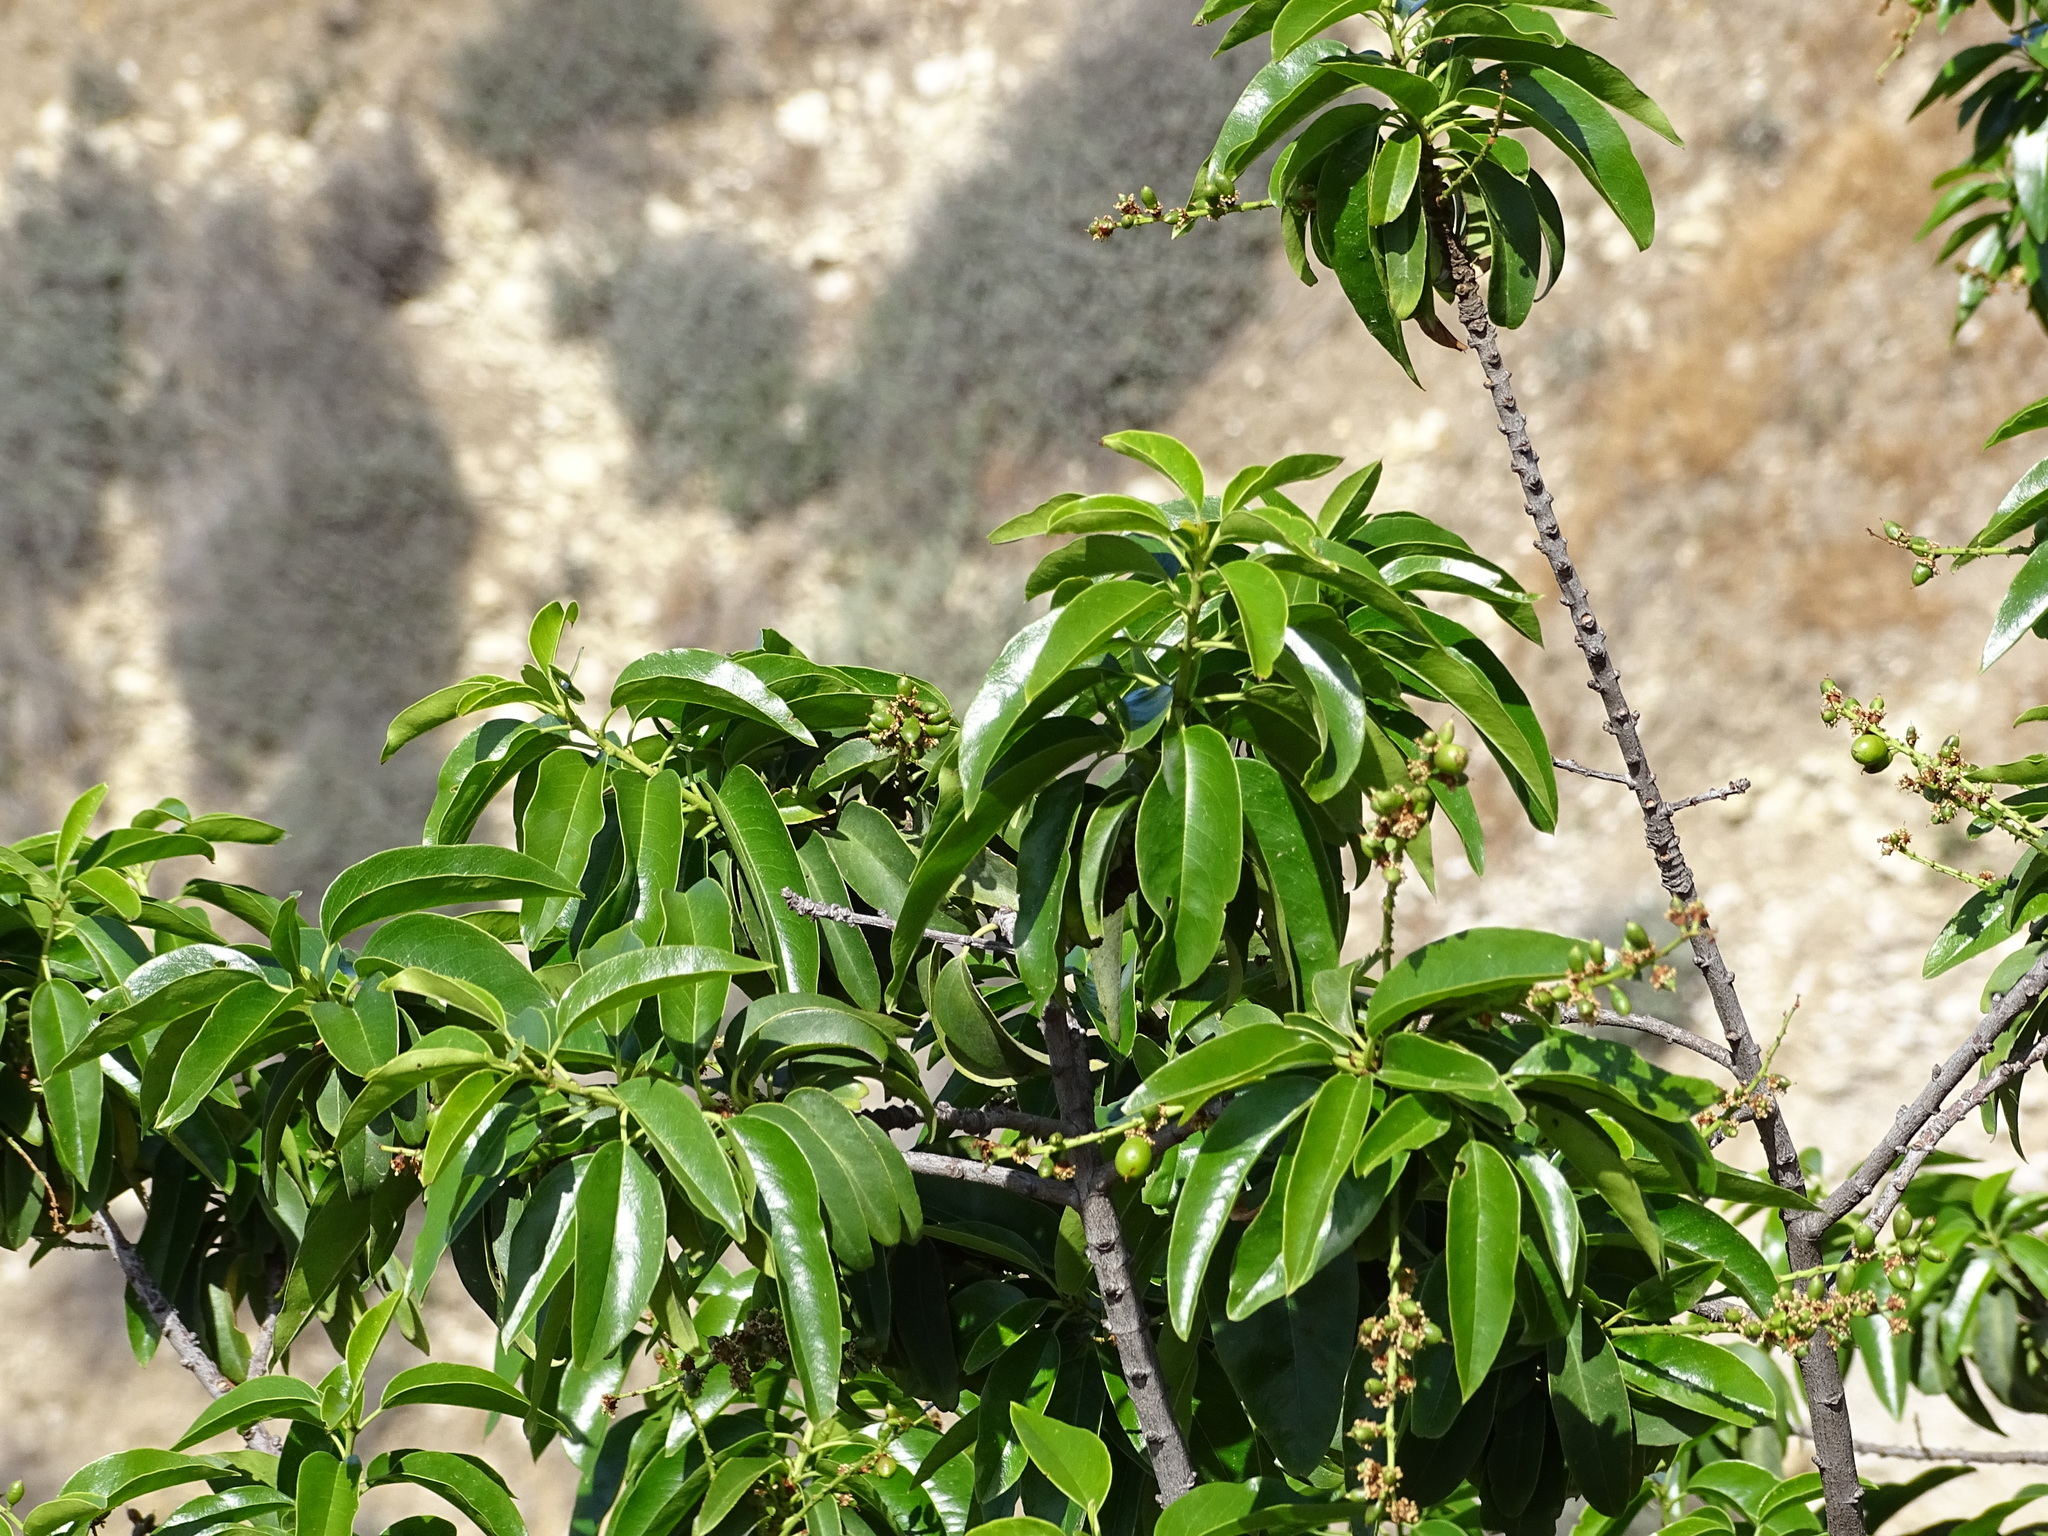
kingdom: Plantae
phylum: Tracheophyta
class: Magnoliopsida
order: Rosales
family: Rosaceae
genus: Prunus
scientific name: Prunus ilicifolia
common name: Hollyleaf cherry
